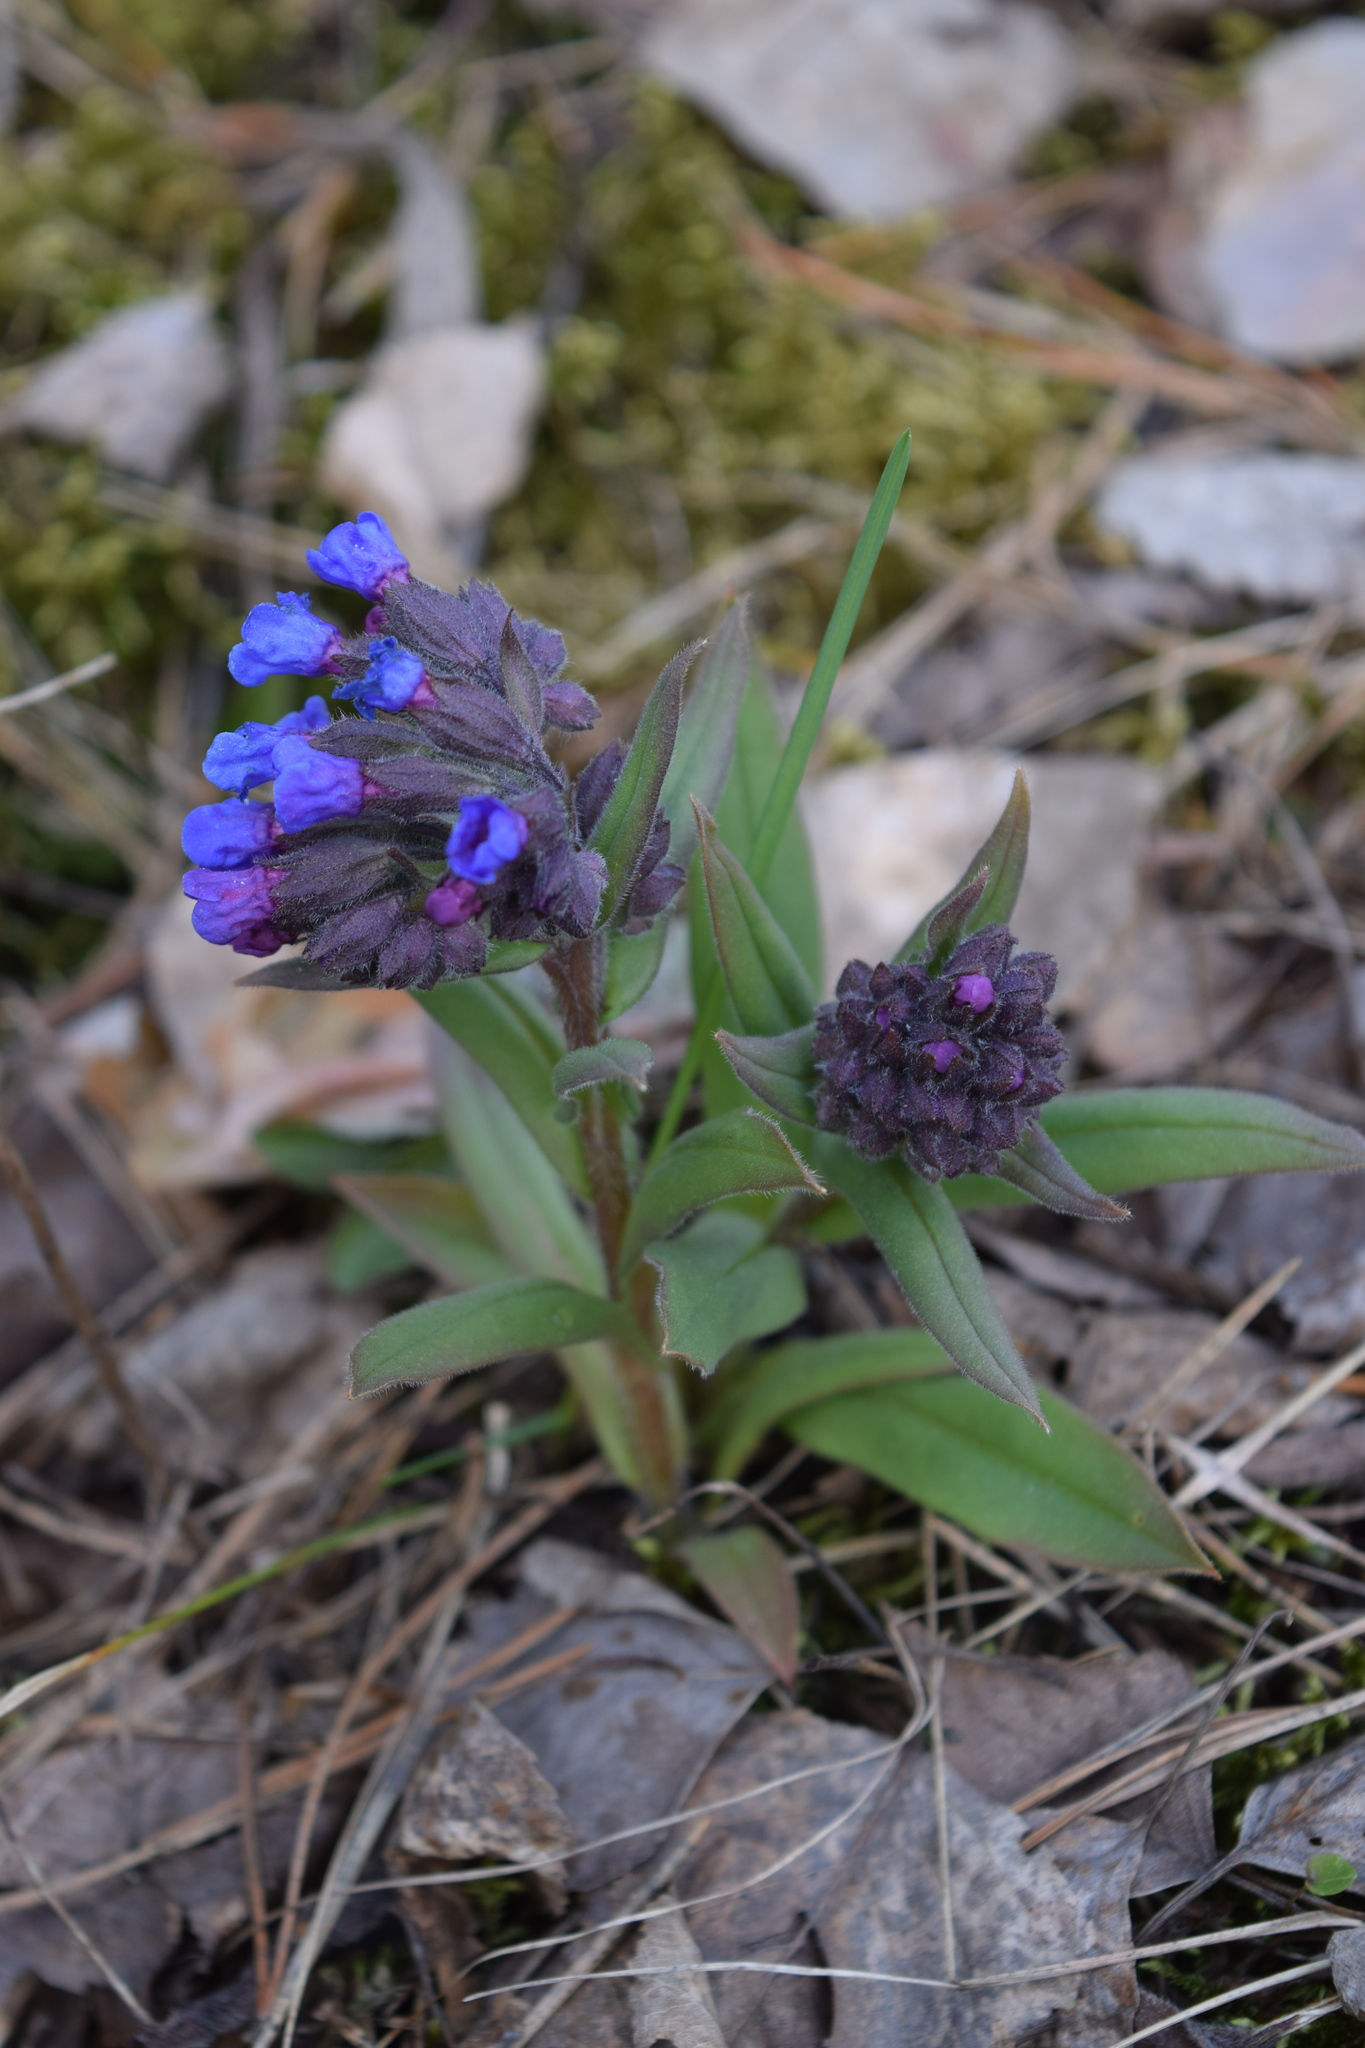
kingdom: Plantae
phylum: Tracheophyta
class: Magnoliopsida
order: Boraginales
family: Boraginaceae
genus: Pulmonaria
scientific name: Pulmonaria angustifolia
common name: Blue cowslip
